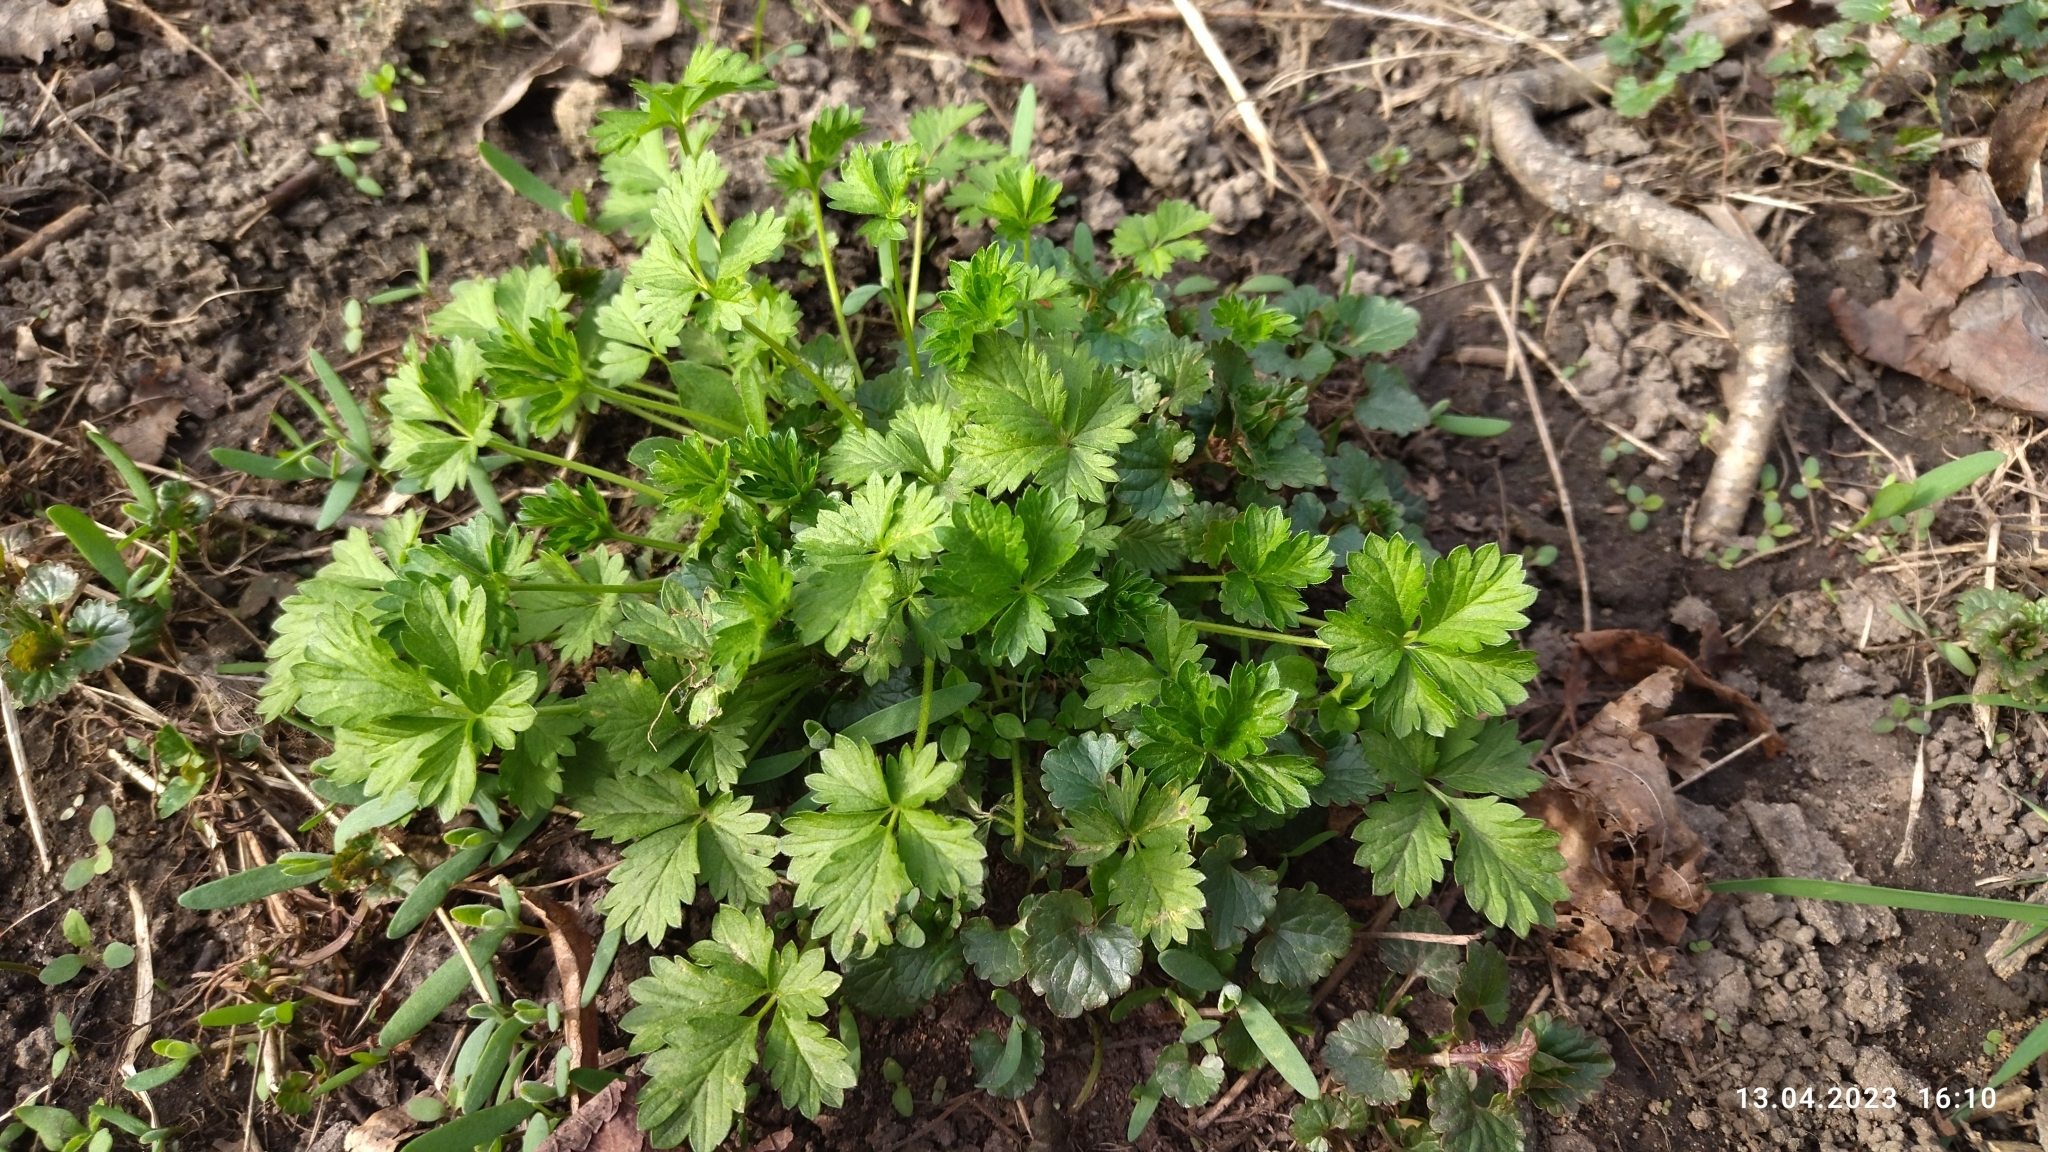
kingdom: Plantae
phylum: Tracheophyta
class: Magnoliopsida
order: Rosales
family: Rosaceae
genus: Potentilla
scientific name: Potentilla intermedia
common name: Downy cinquefoil
